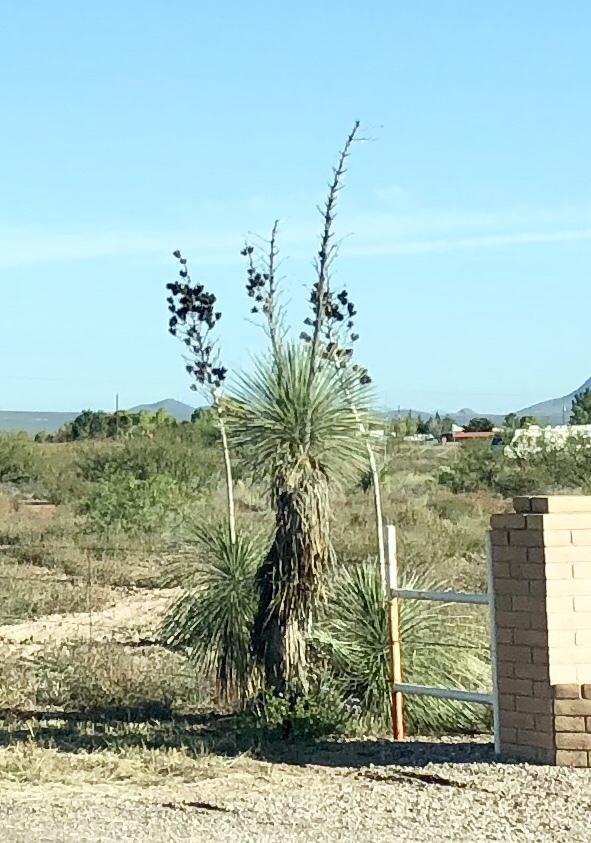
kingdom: Plantae
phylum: Tracheophyta
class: Liliopsida
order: Asparagales
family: Asparagaceae
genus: Yucca
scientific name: Yucca elata
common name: Palmella
